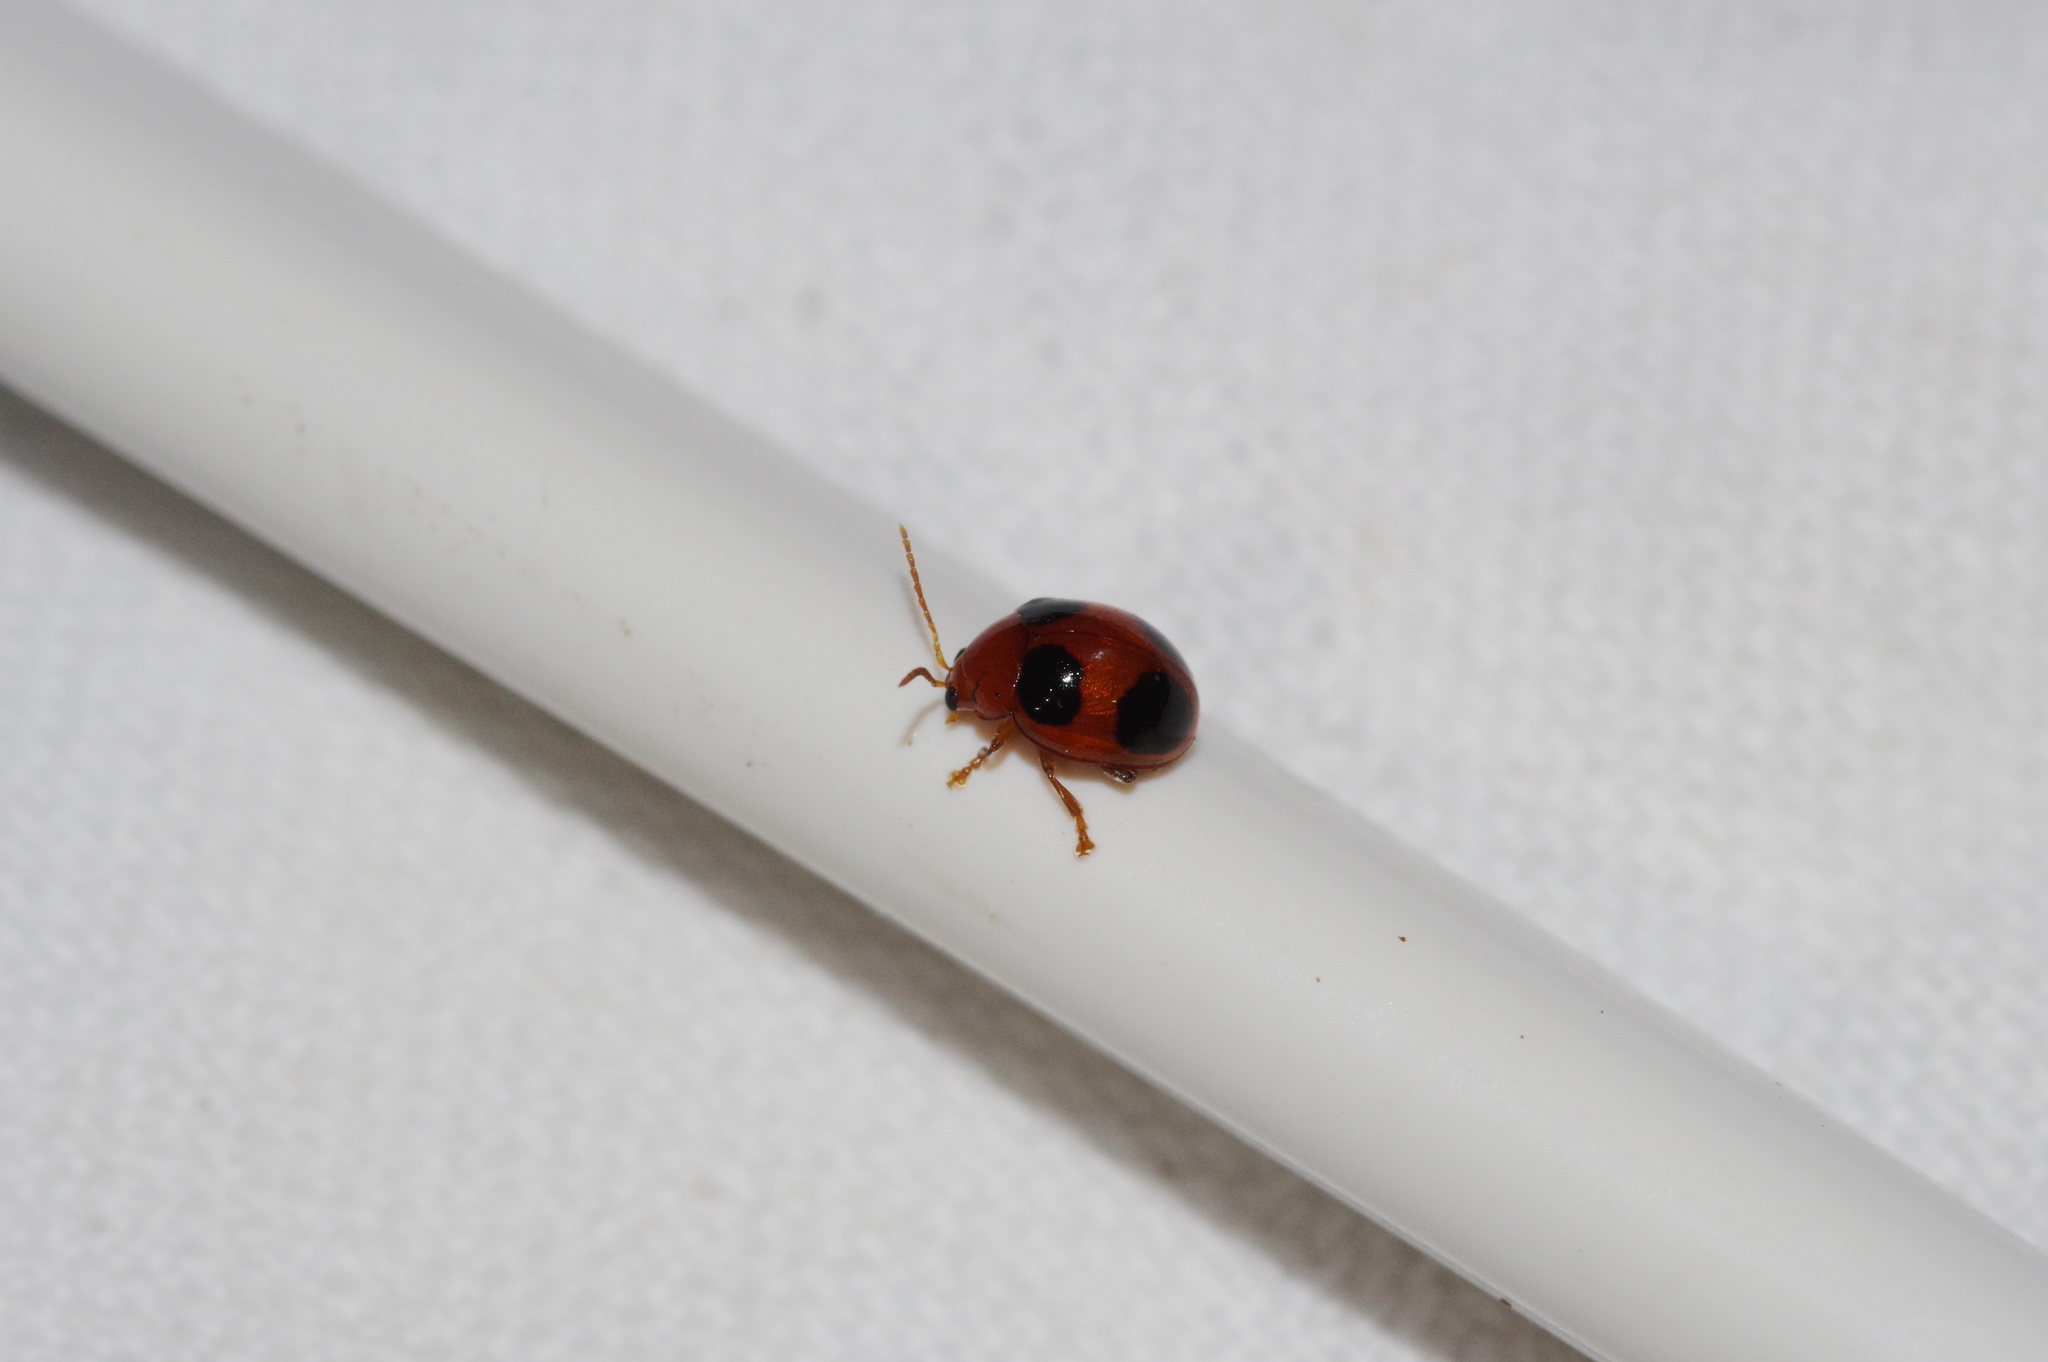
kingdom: Animalia
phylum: Arthropoda
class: Insecta
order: Coleoptera
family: Chrysomelidae
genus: Sphaeroderma
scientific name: Sphaeroderma
